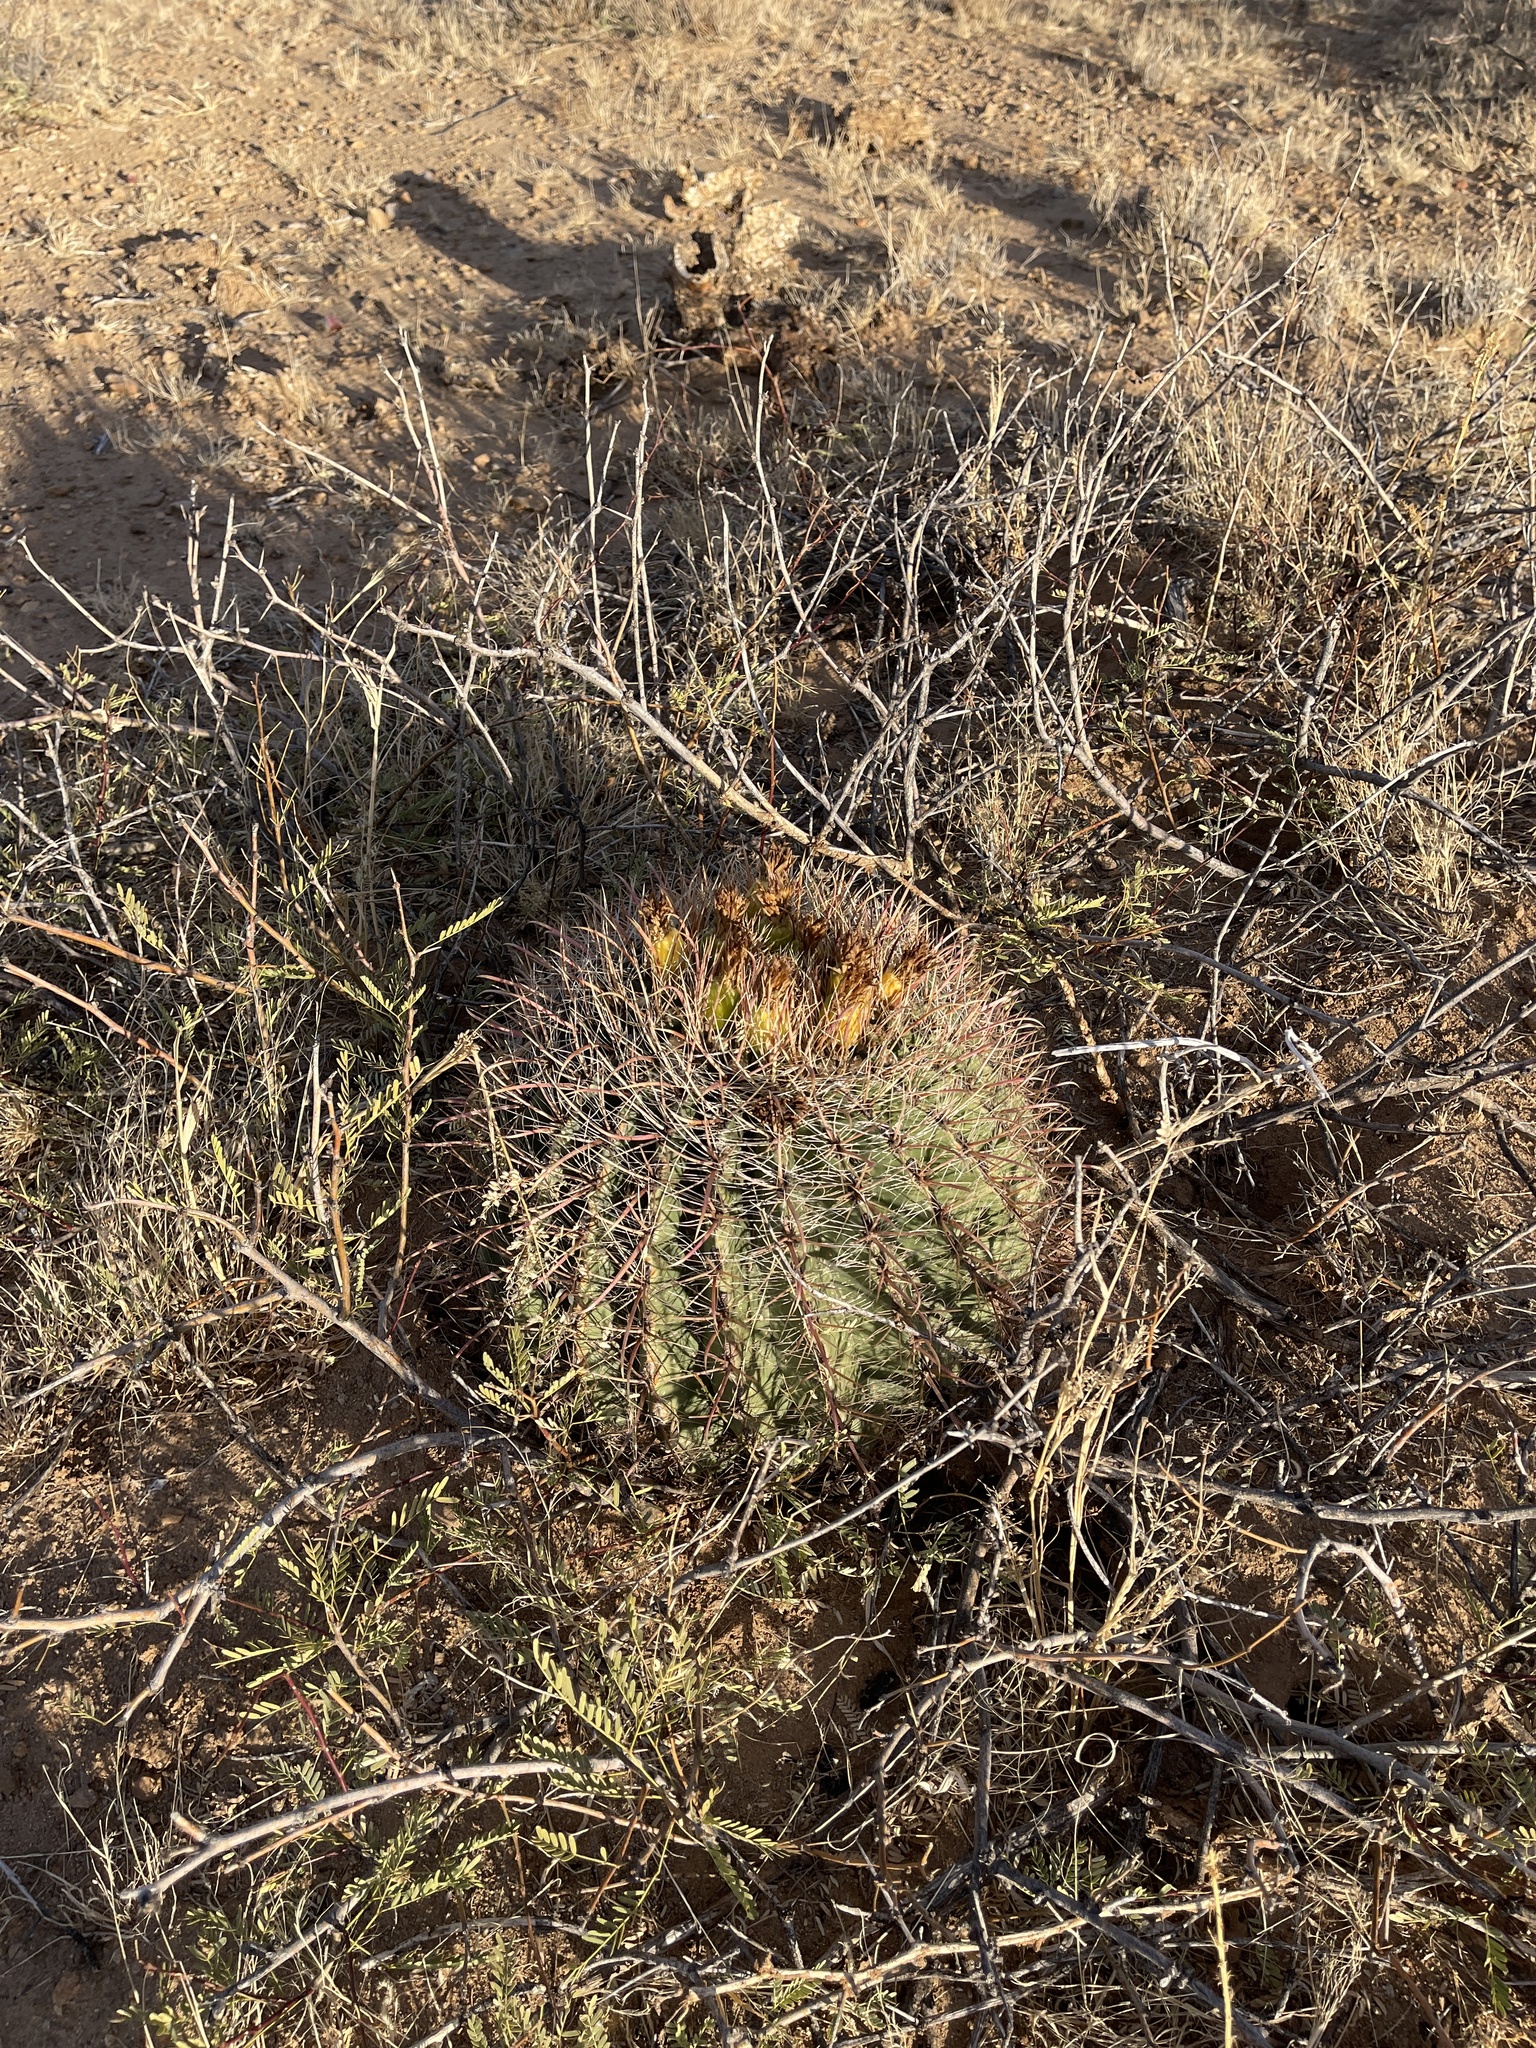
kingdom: Plantae
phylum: Tracheophyta
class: Magnoliopsida
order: Caryophyllales
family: Cactaceae
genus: Ferocactus
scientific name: Ferocactus wislizeni
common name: Candy barrel cactus
